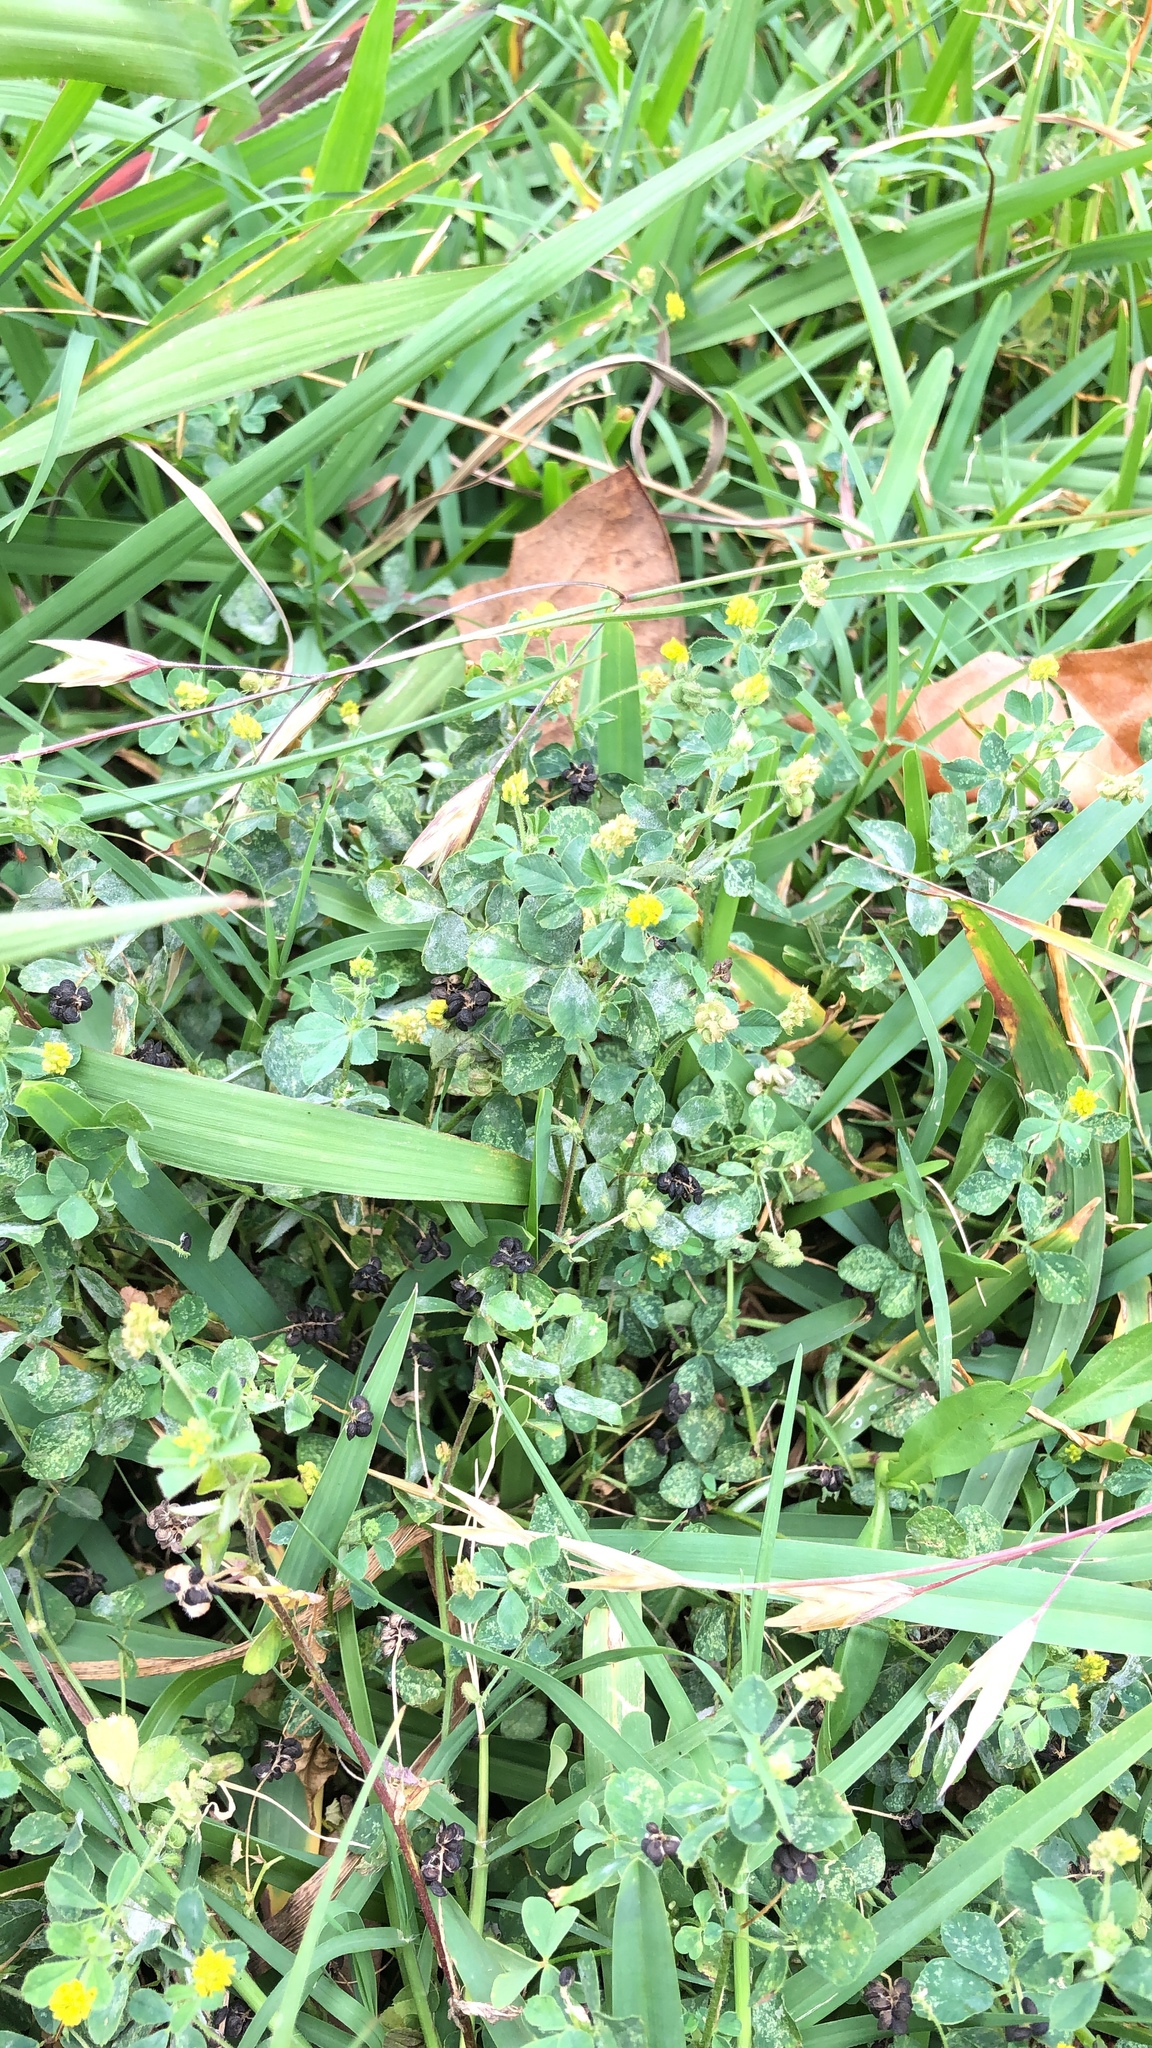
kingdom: Plantae
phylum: Tracheophyta
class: Magnoliopsida
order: Fabales
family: Fabaceae
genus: Medicago
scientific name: Medicago lupulina
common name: Black medick
